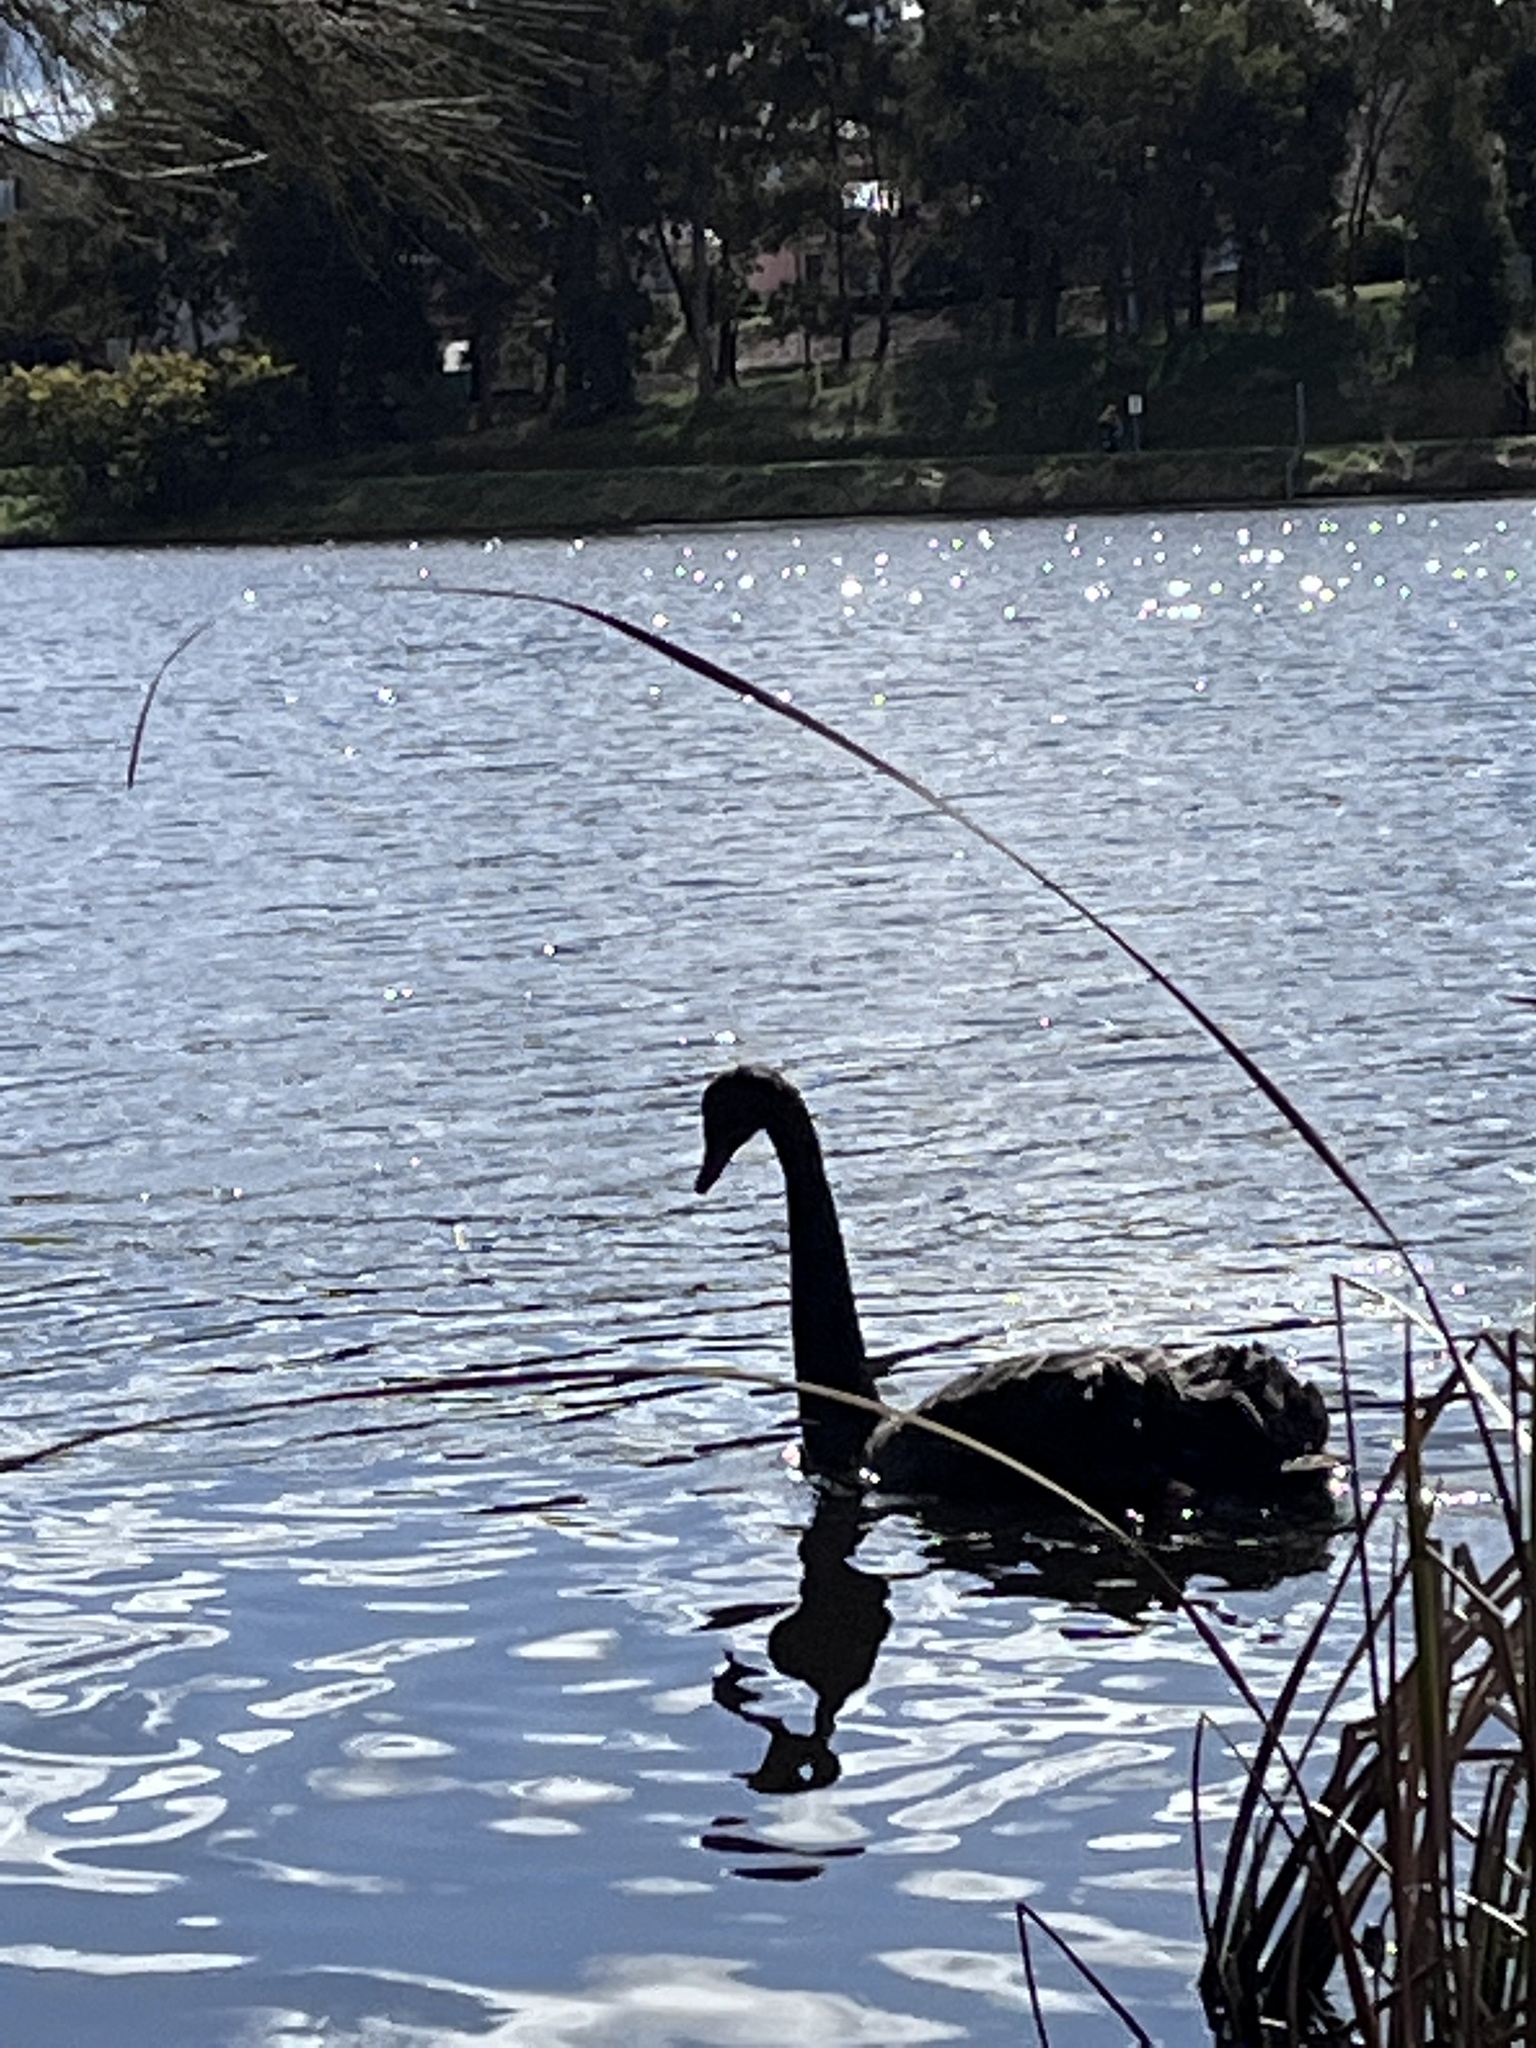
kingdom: Animalia
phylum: Chordata
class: Aves
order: Anseriformes
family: Anatidae
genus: Cygnus
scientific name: Cygnus atratus
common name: Black swan
